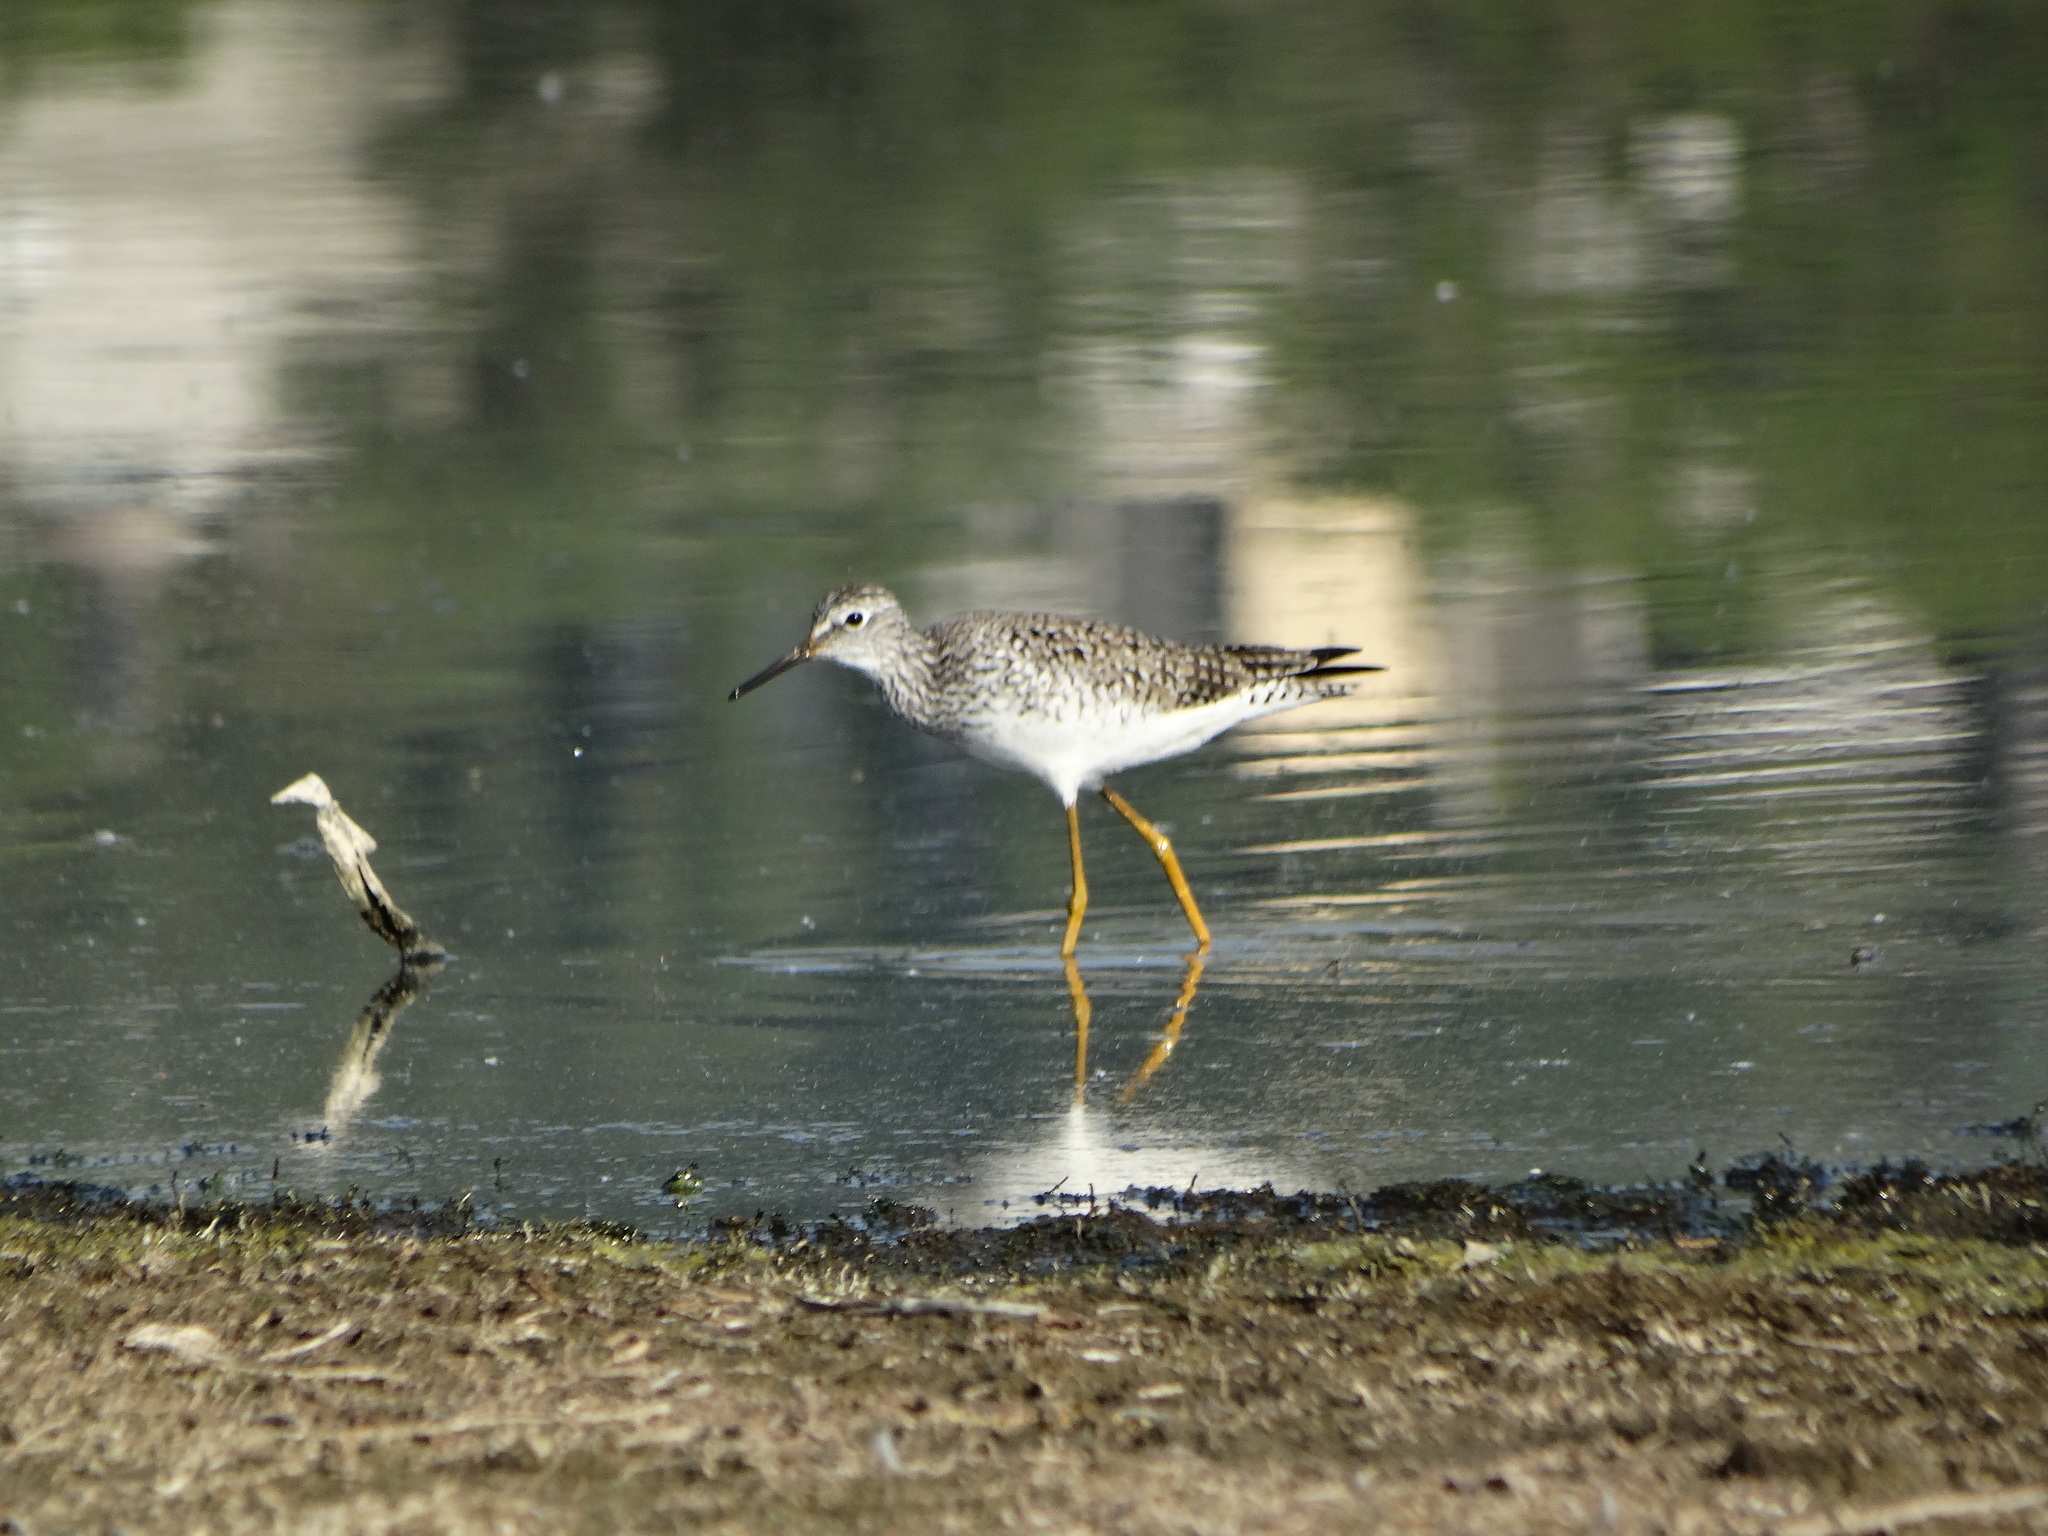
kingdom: Animalia
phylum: Chordata
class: Aves
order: Charadriiformes
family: Scolopacidae
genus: Tringa
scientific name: Tringa flavipes
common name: Lesser yellowlegs
